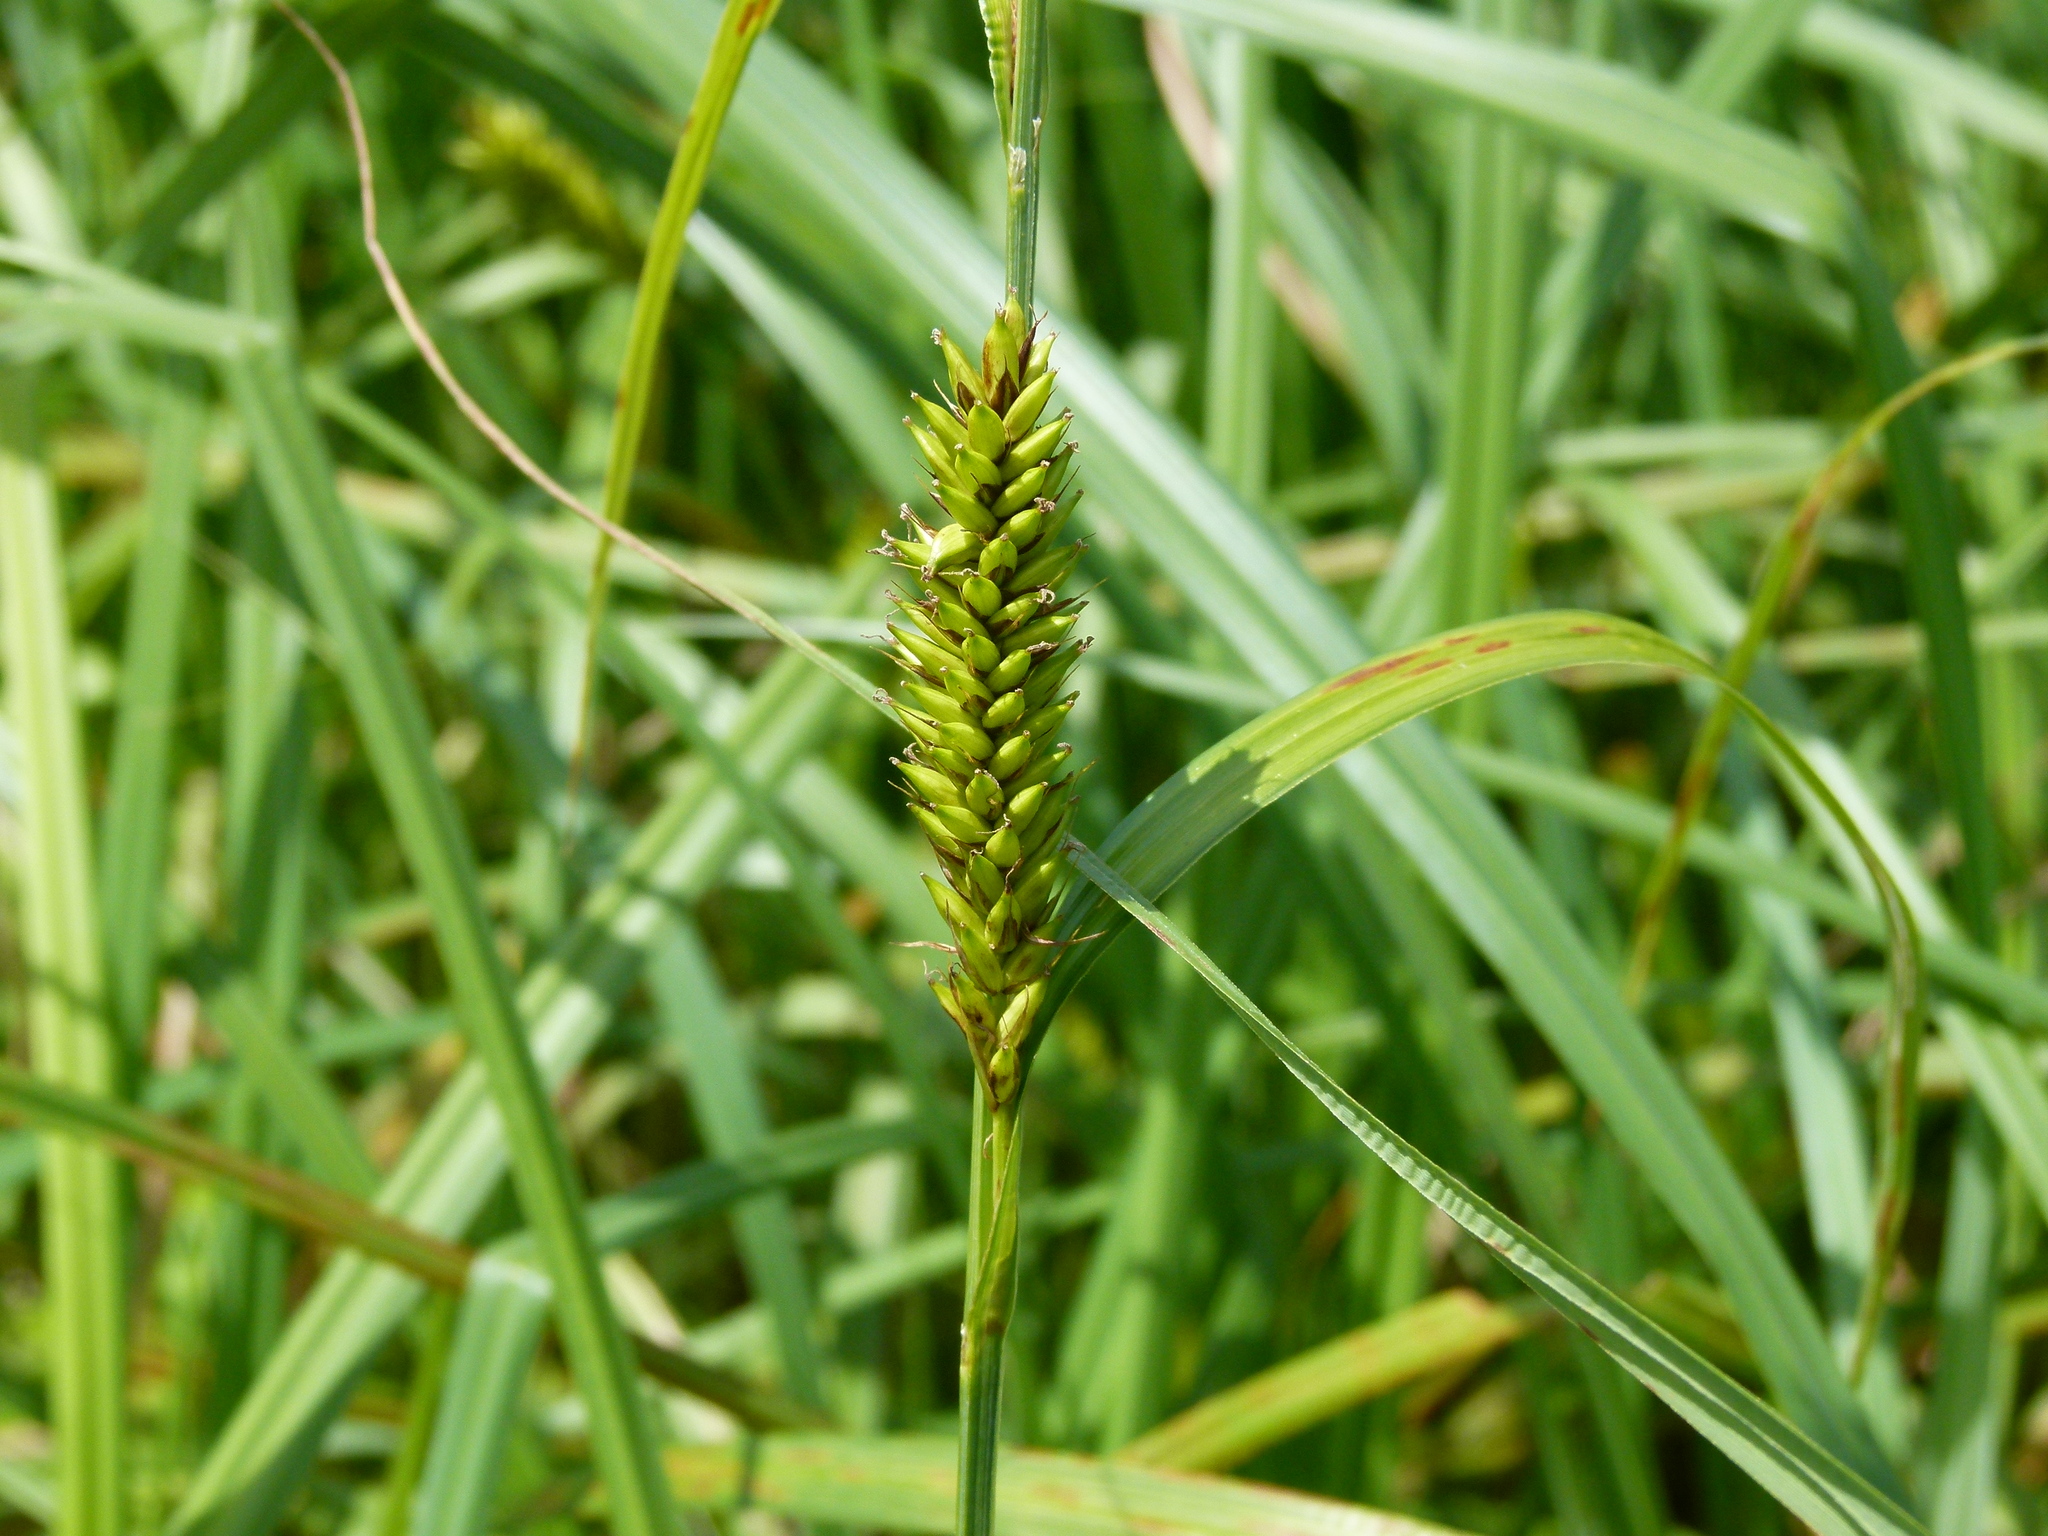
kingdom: Plantae
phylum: Tracheophyta
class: Liliopsida
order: Poales
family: Cyperaceae
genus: Carex
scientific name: Carex lacustris
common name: Common lake sedge
